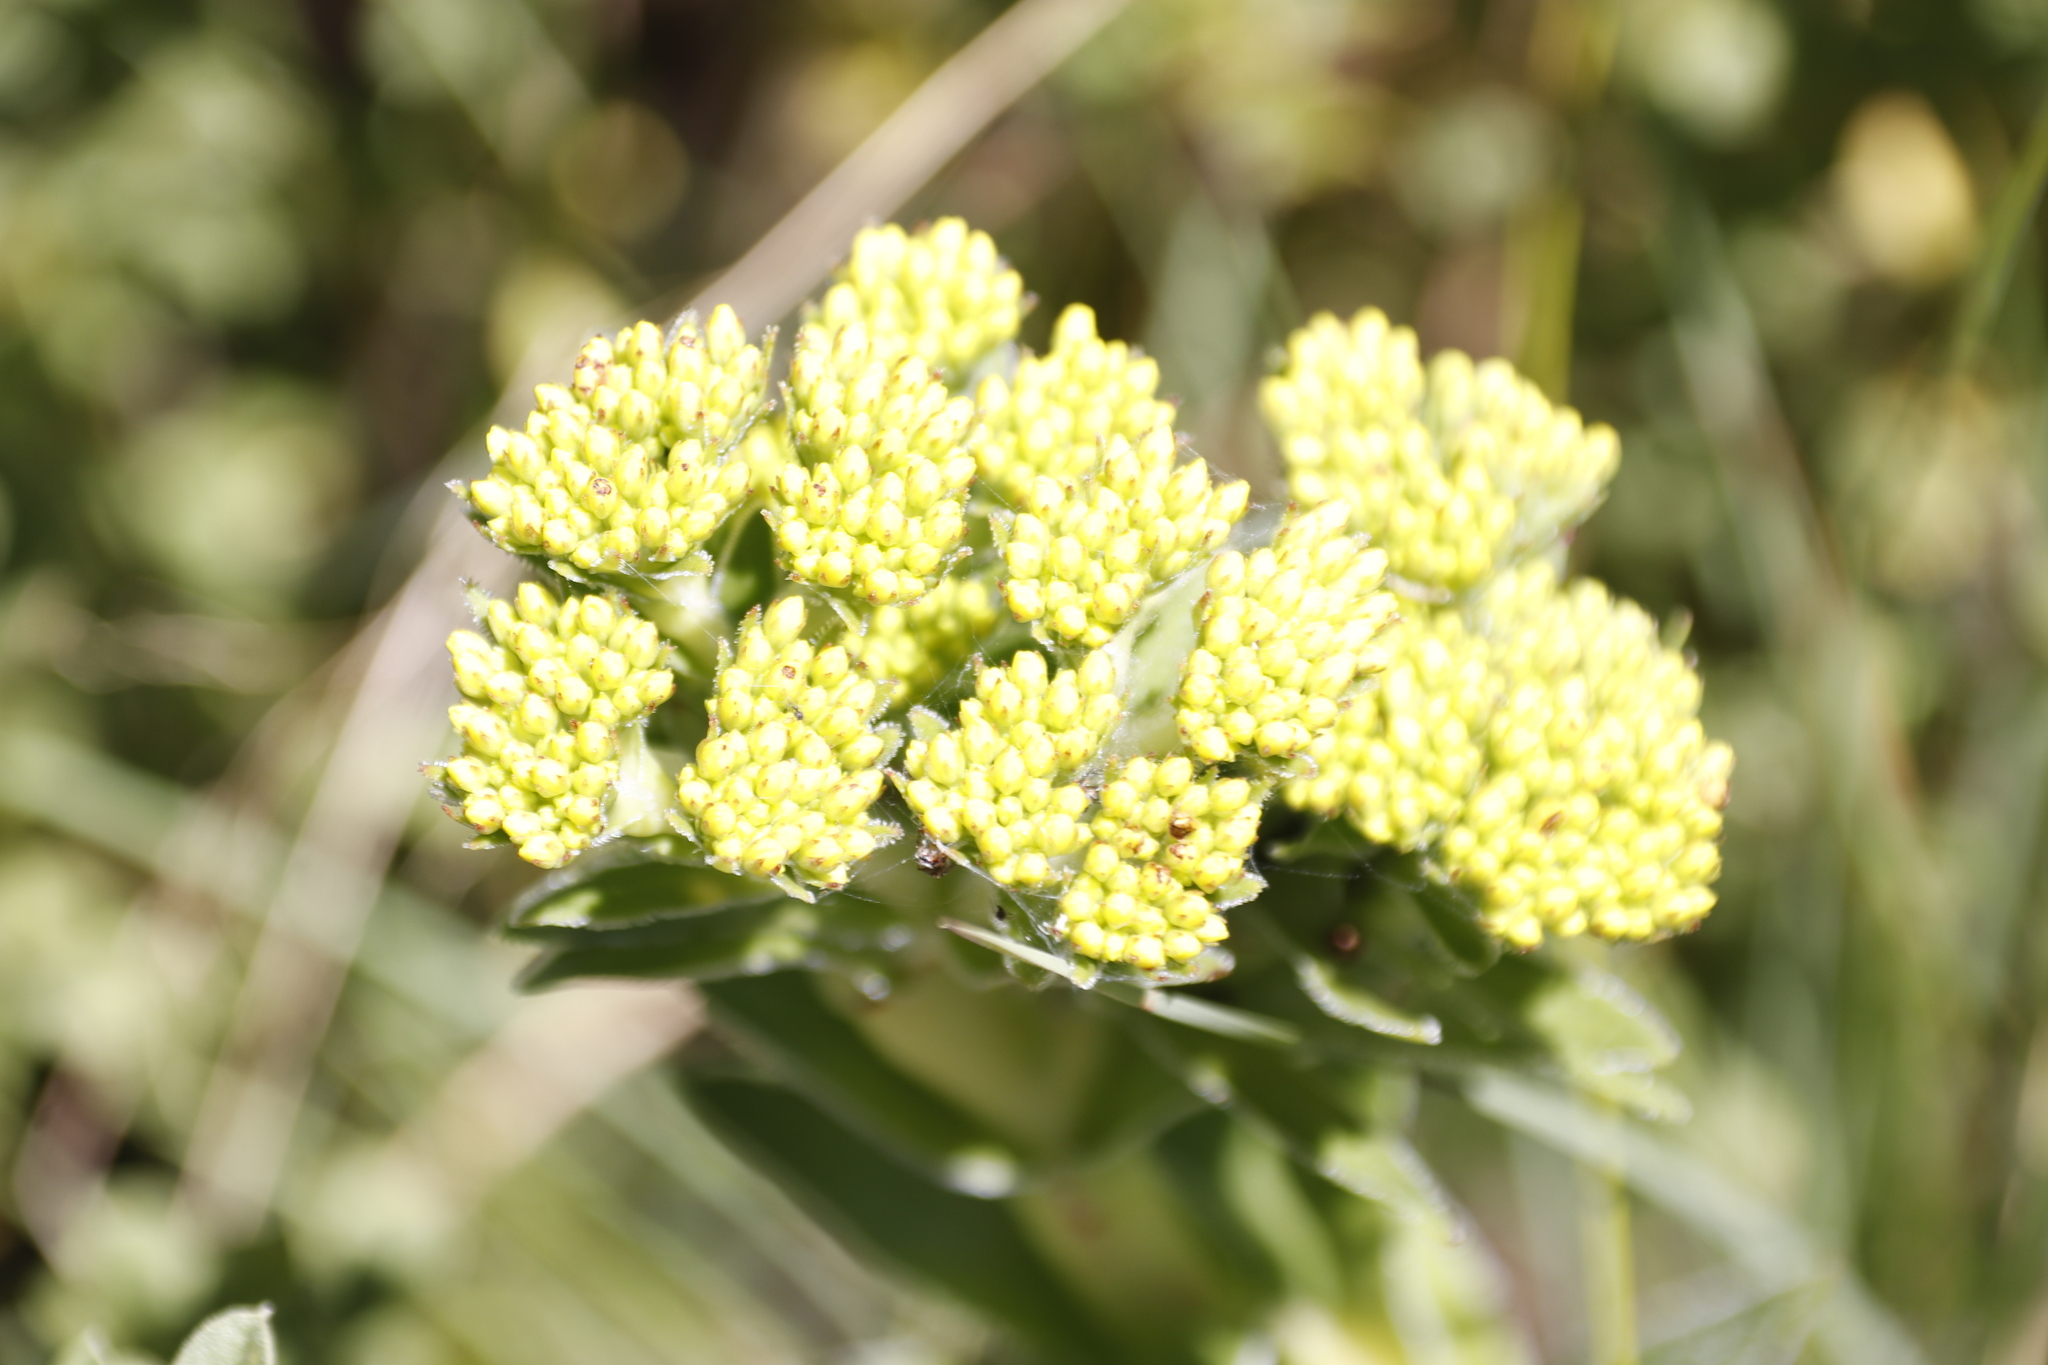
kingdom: Plantae
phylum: Tracheophyta
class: Magnoliopsida
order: Saxifragales
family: Crassulaceae
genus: Crassula
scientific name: Crassula vaginata
